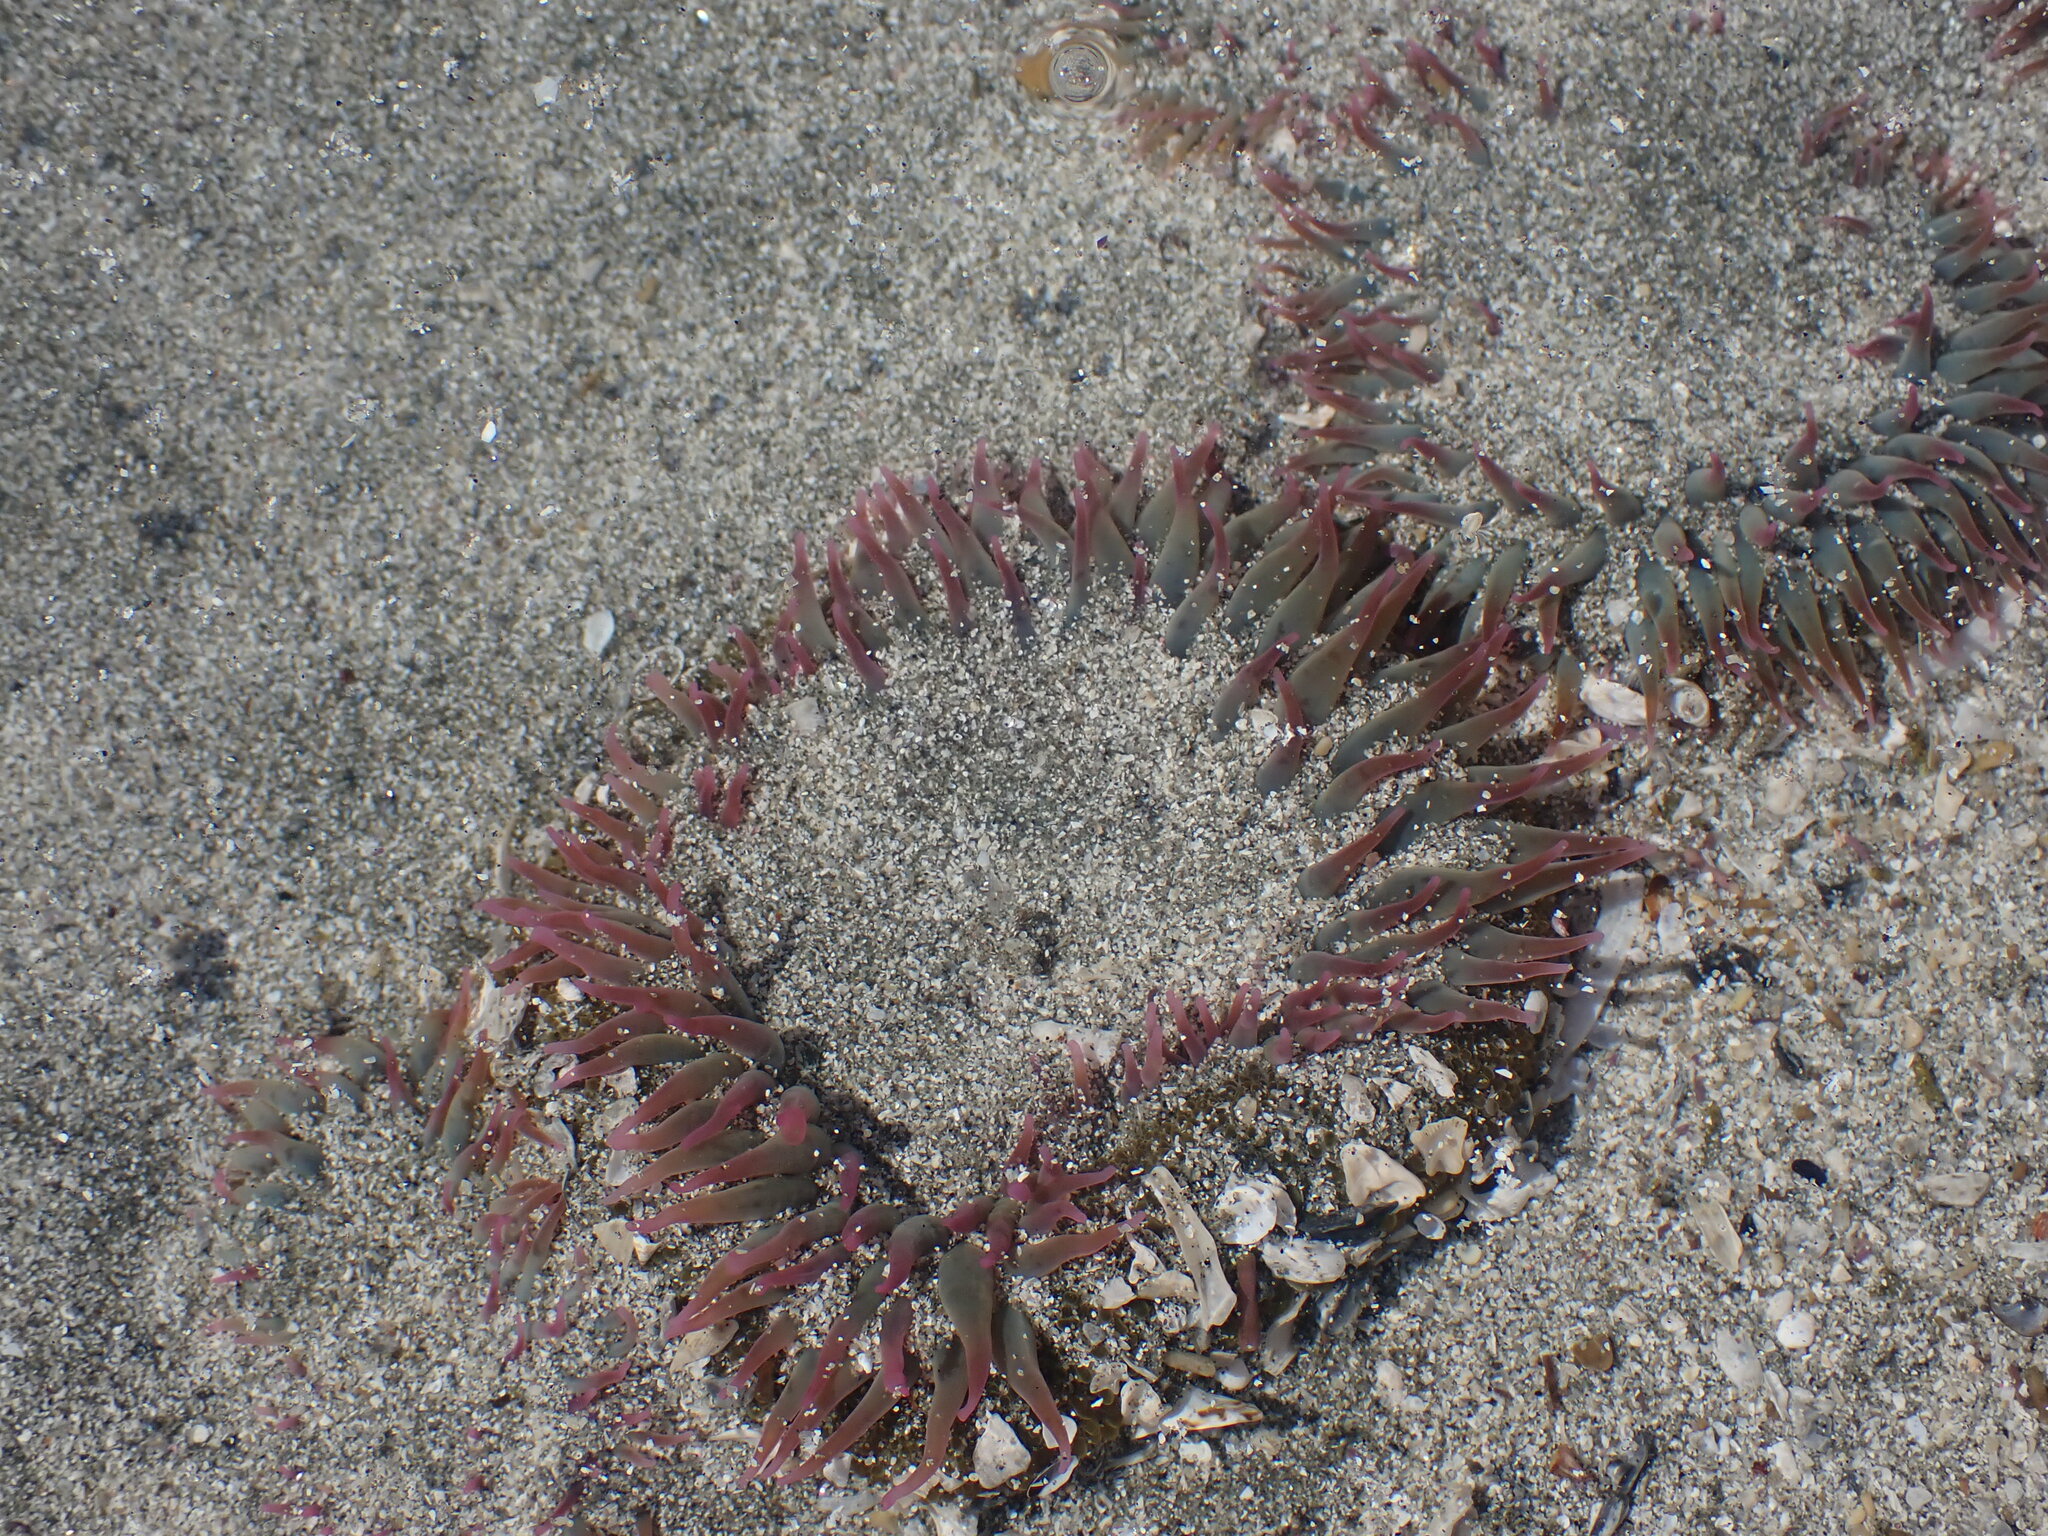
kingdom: Animalia
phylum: Cnidaria
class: Anthozoa
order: Actiniaria
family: Actiniidae
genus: Anthopleura
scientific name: Anthopleura elegantissima
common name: Clonal anemone
